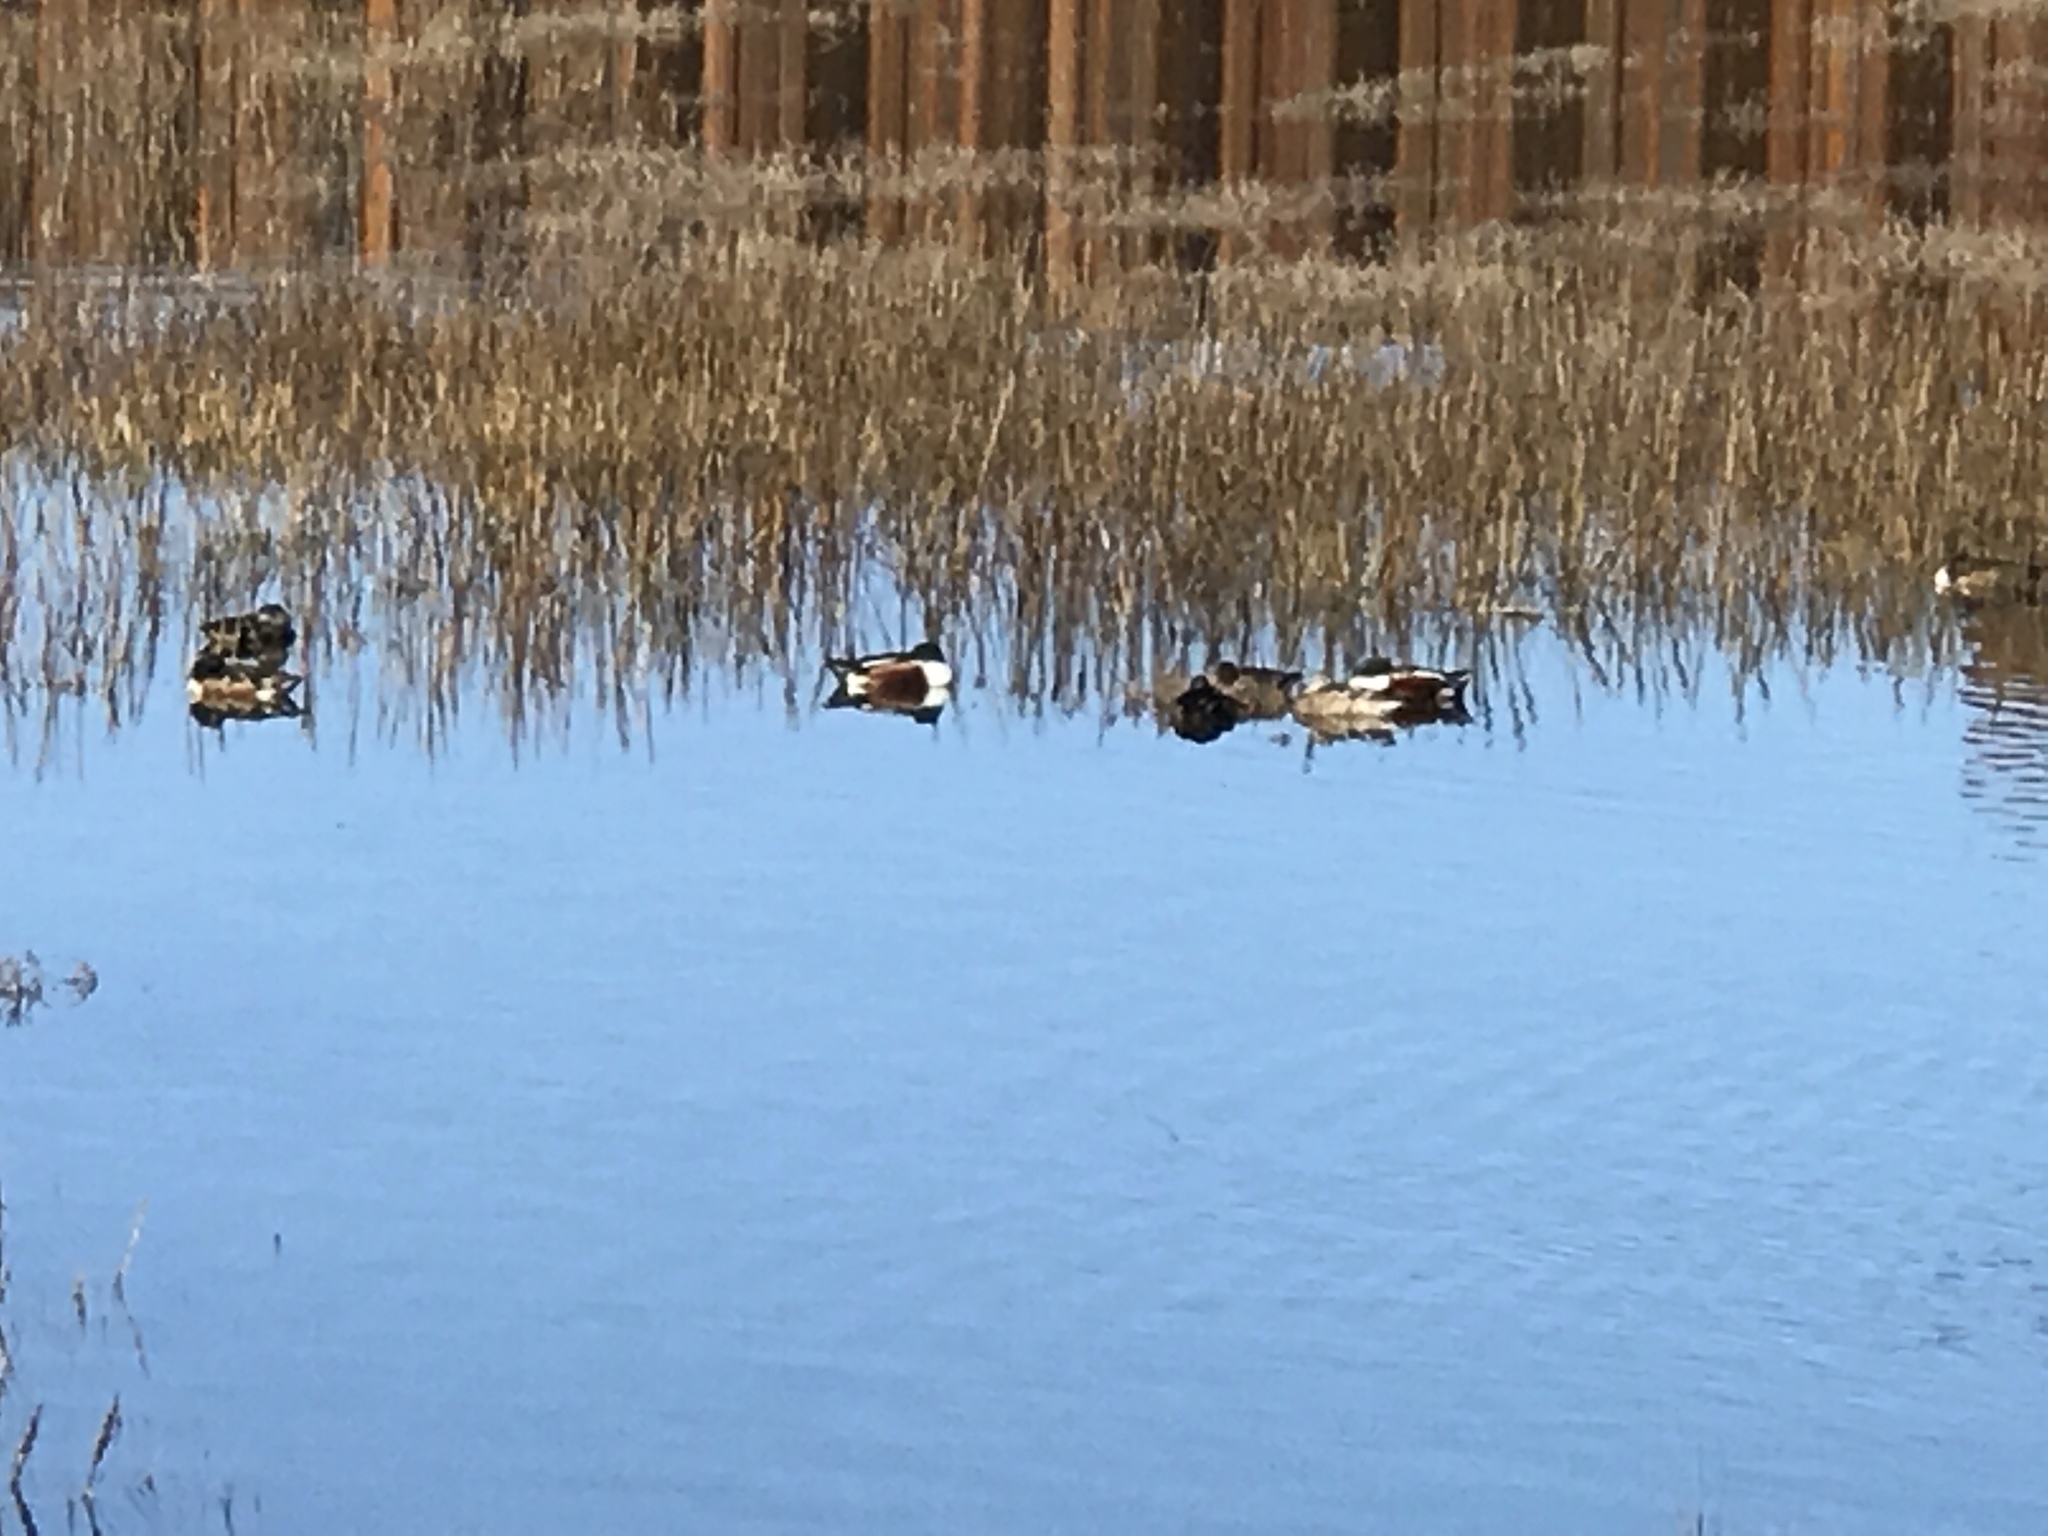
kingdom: Animalia
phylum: Chordata
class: Aves
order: Anseriformes
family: Anatidae
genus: Spatula
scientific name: Spatula clypeata
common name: Northern shoveler
